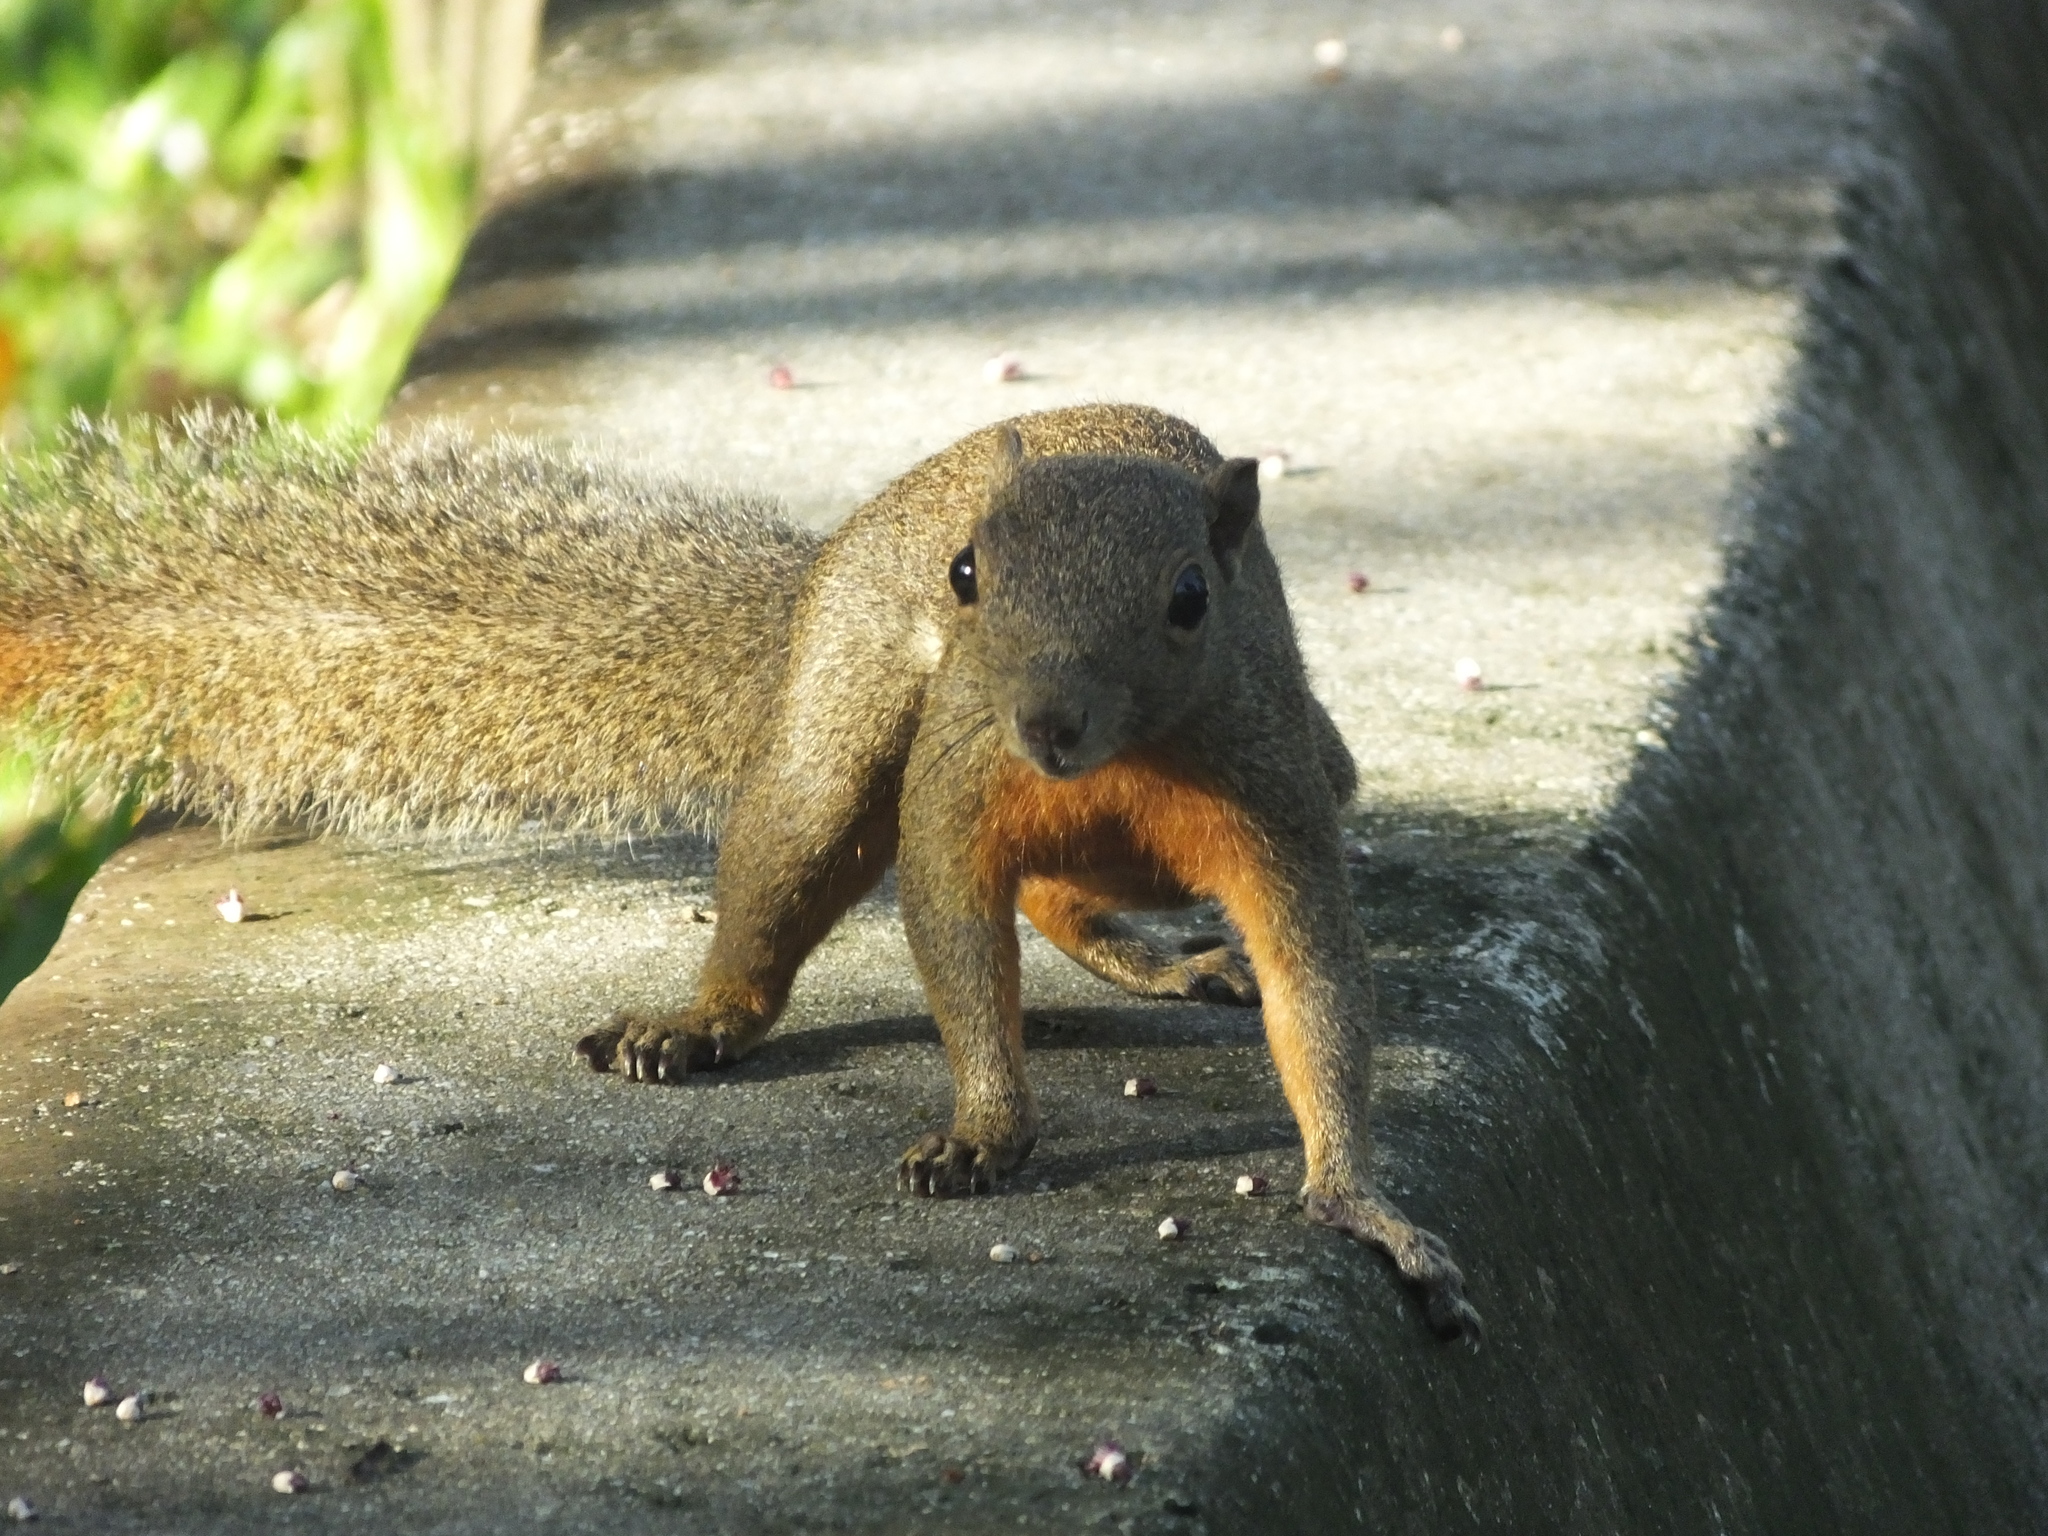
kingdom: Animalia
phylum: Chordata
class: Mammalia
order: Rodentia
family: Sciuridae
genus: Callosciurus
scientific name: Callosciurus erythraeus
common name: Pallas's squirrel
